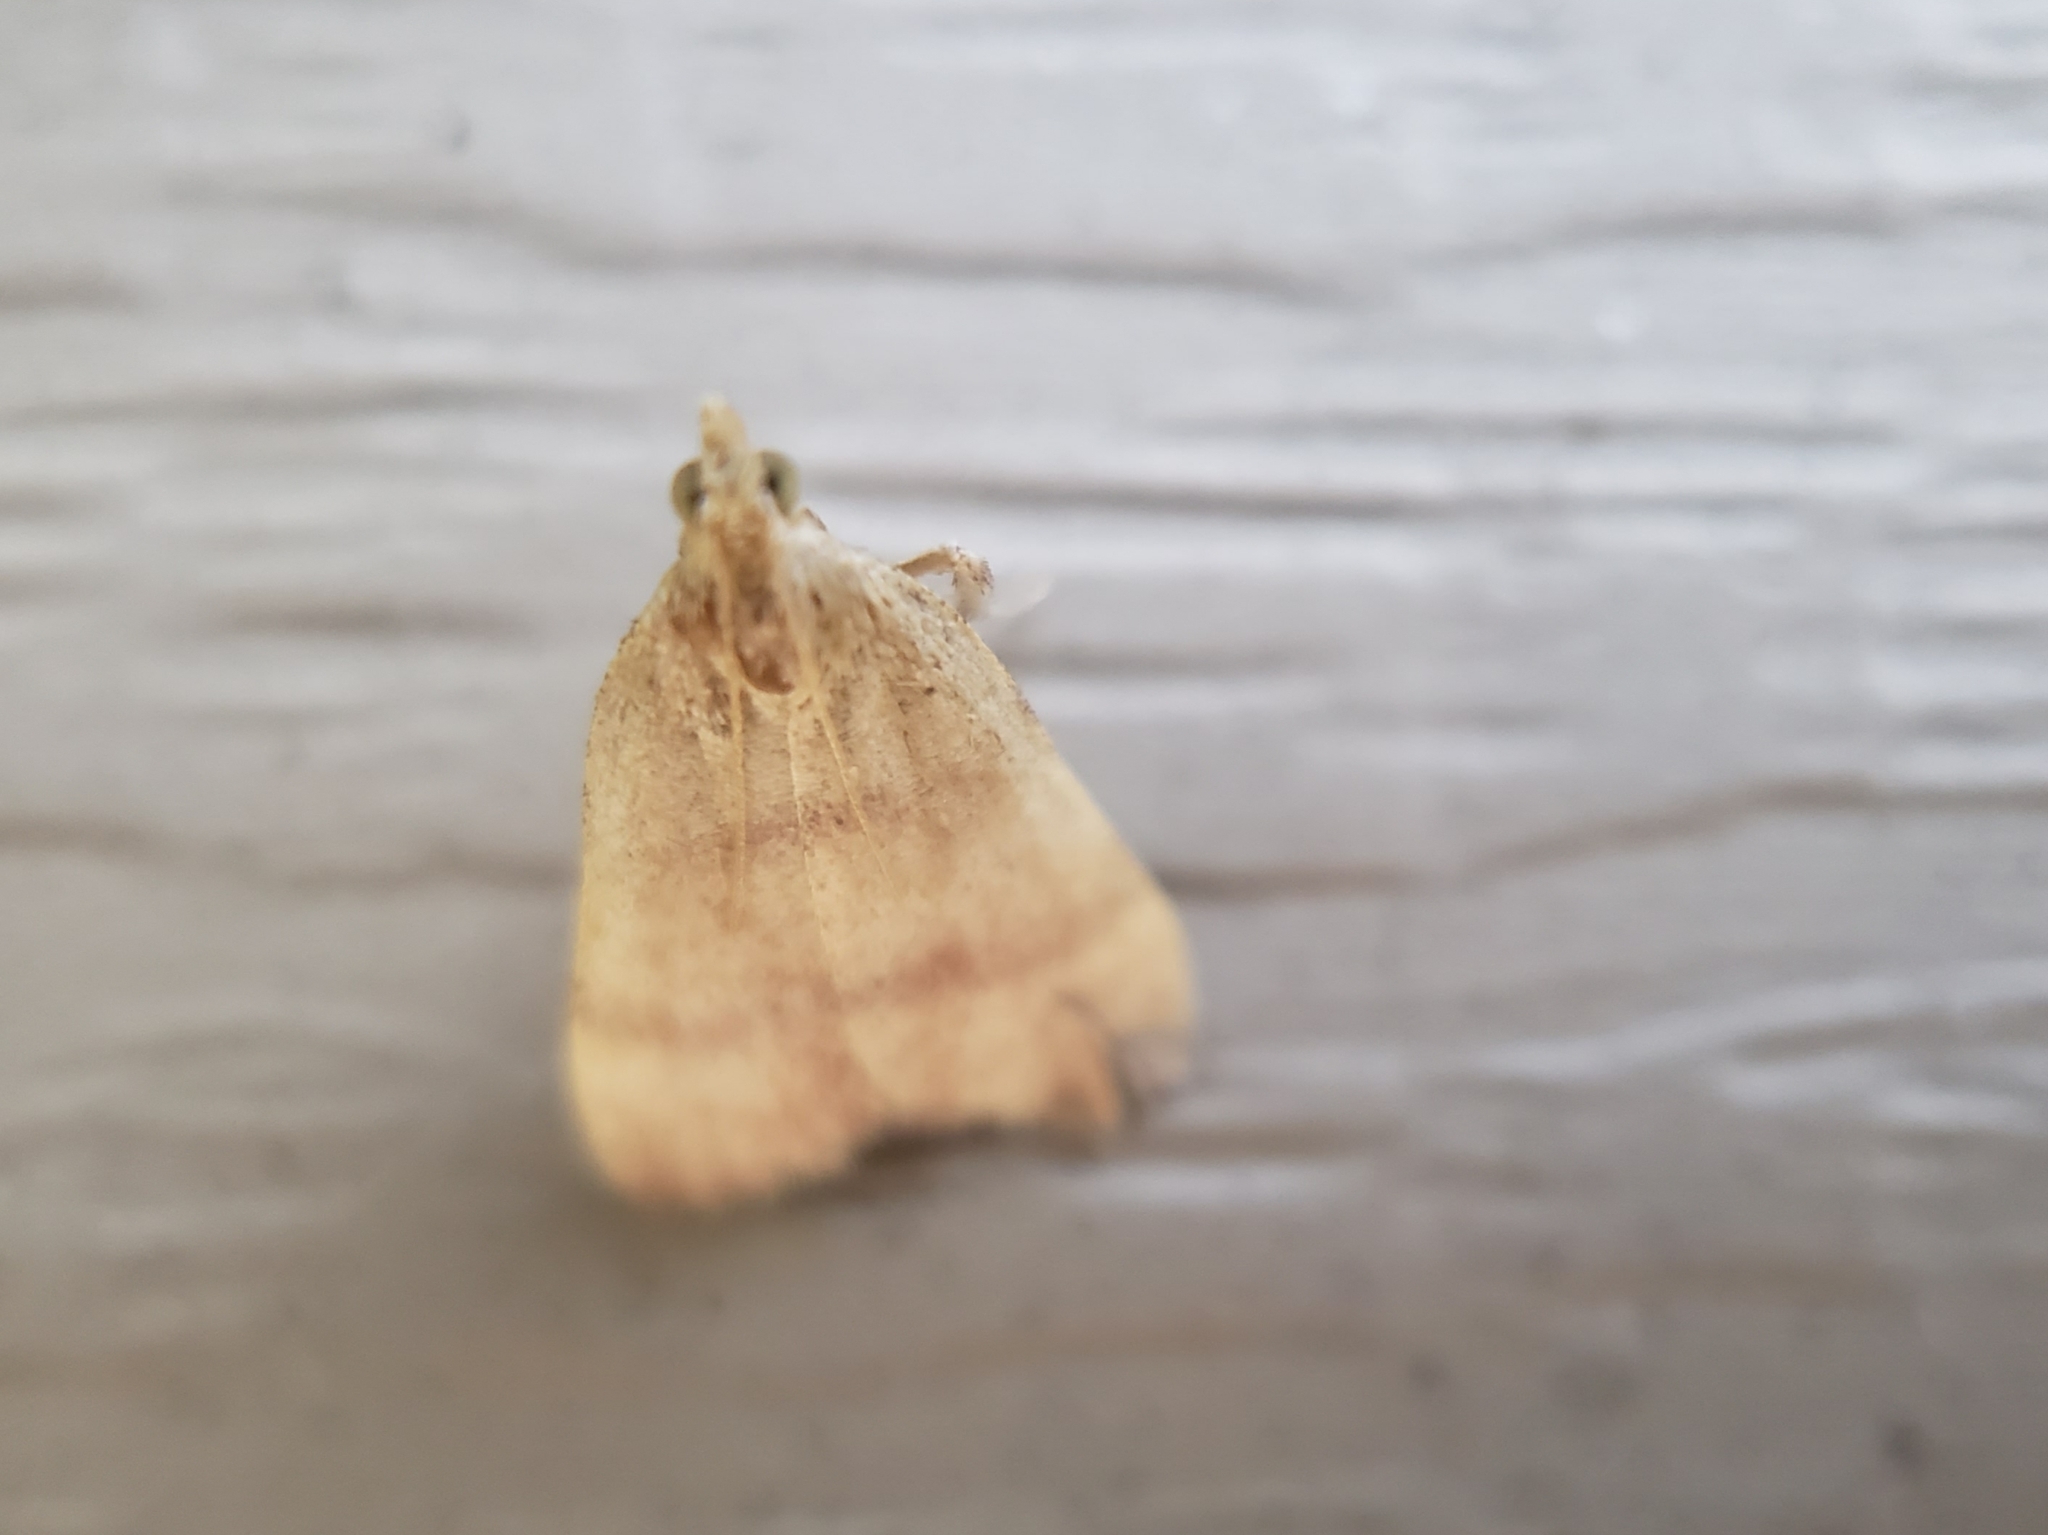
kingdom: Animalia
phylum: Arthropoda
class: Insecta
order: Lepidoptera
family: Pyralidae
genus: Condylolomia
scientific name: Condylolomia participialis
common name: Drab condylolomia moth
